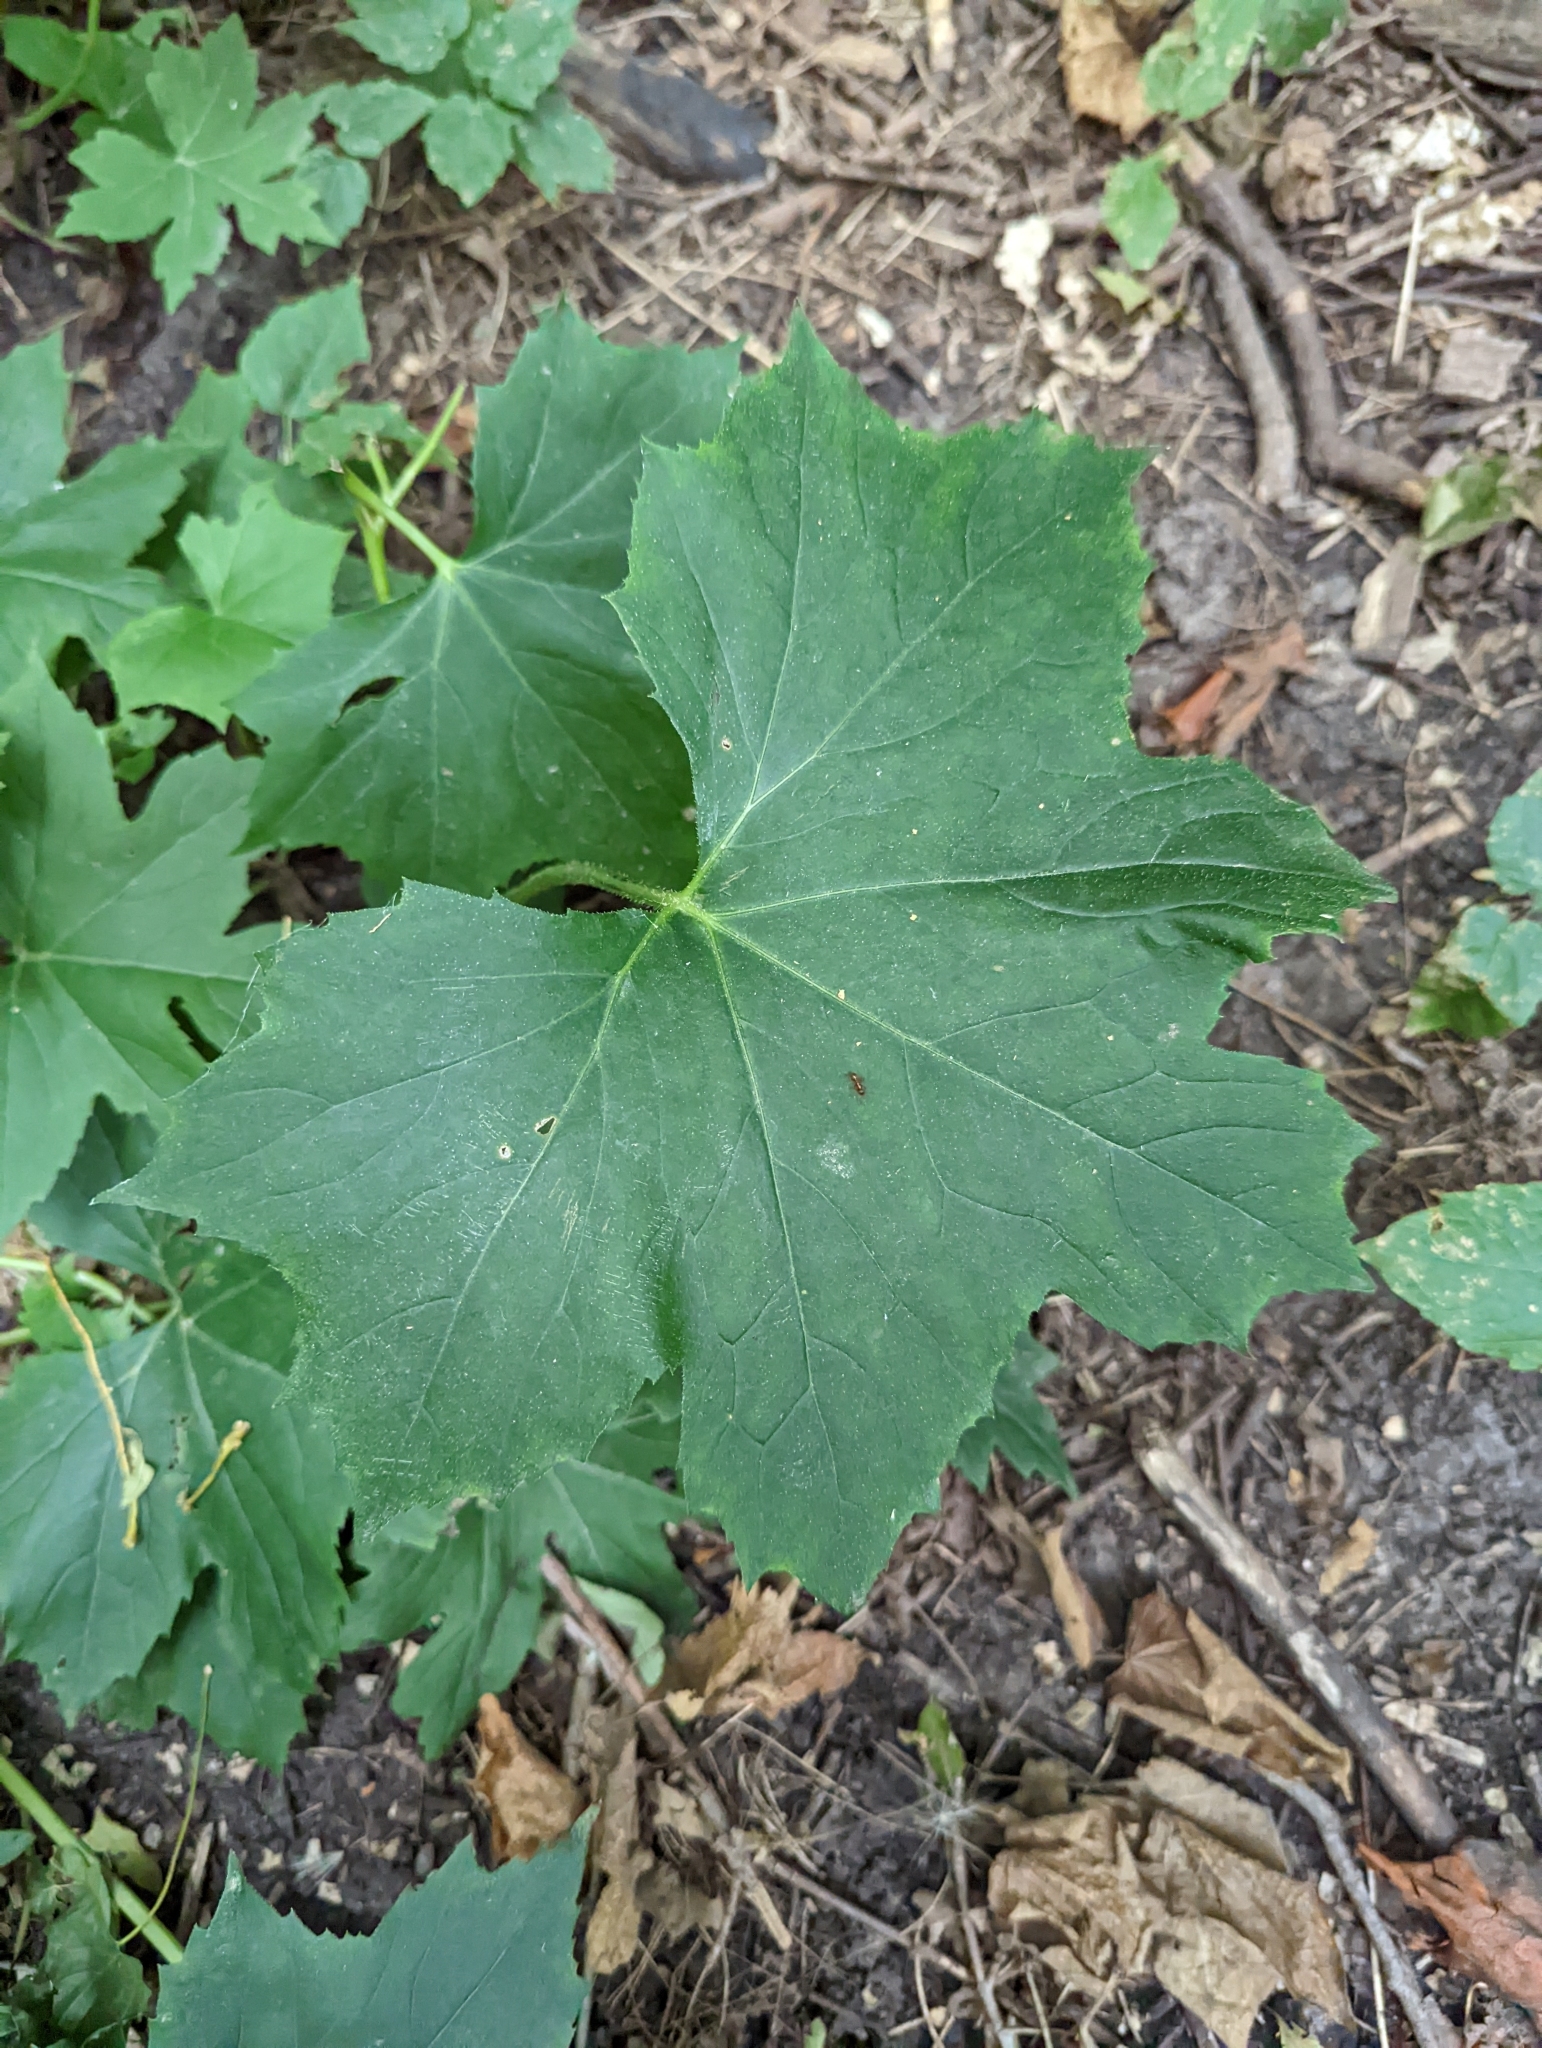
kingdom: Plantae
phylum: Tracheophyta
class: Magnoliopsida
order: Boraginales
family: Hydrophyllaceae
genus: Hydrophyllum
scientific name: Hydrophyllum canadense
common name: Canada waterleaf
